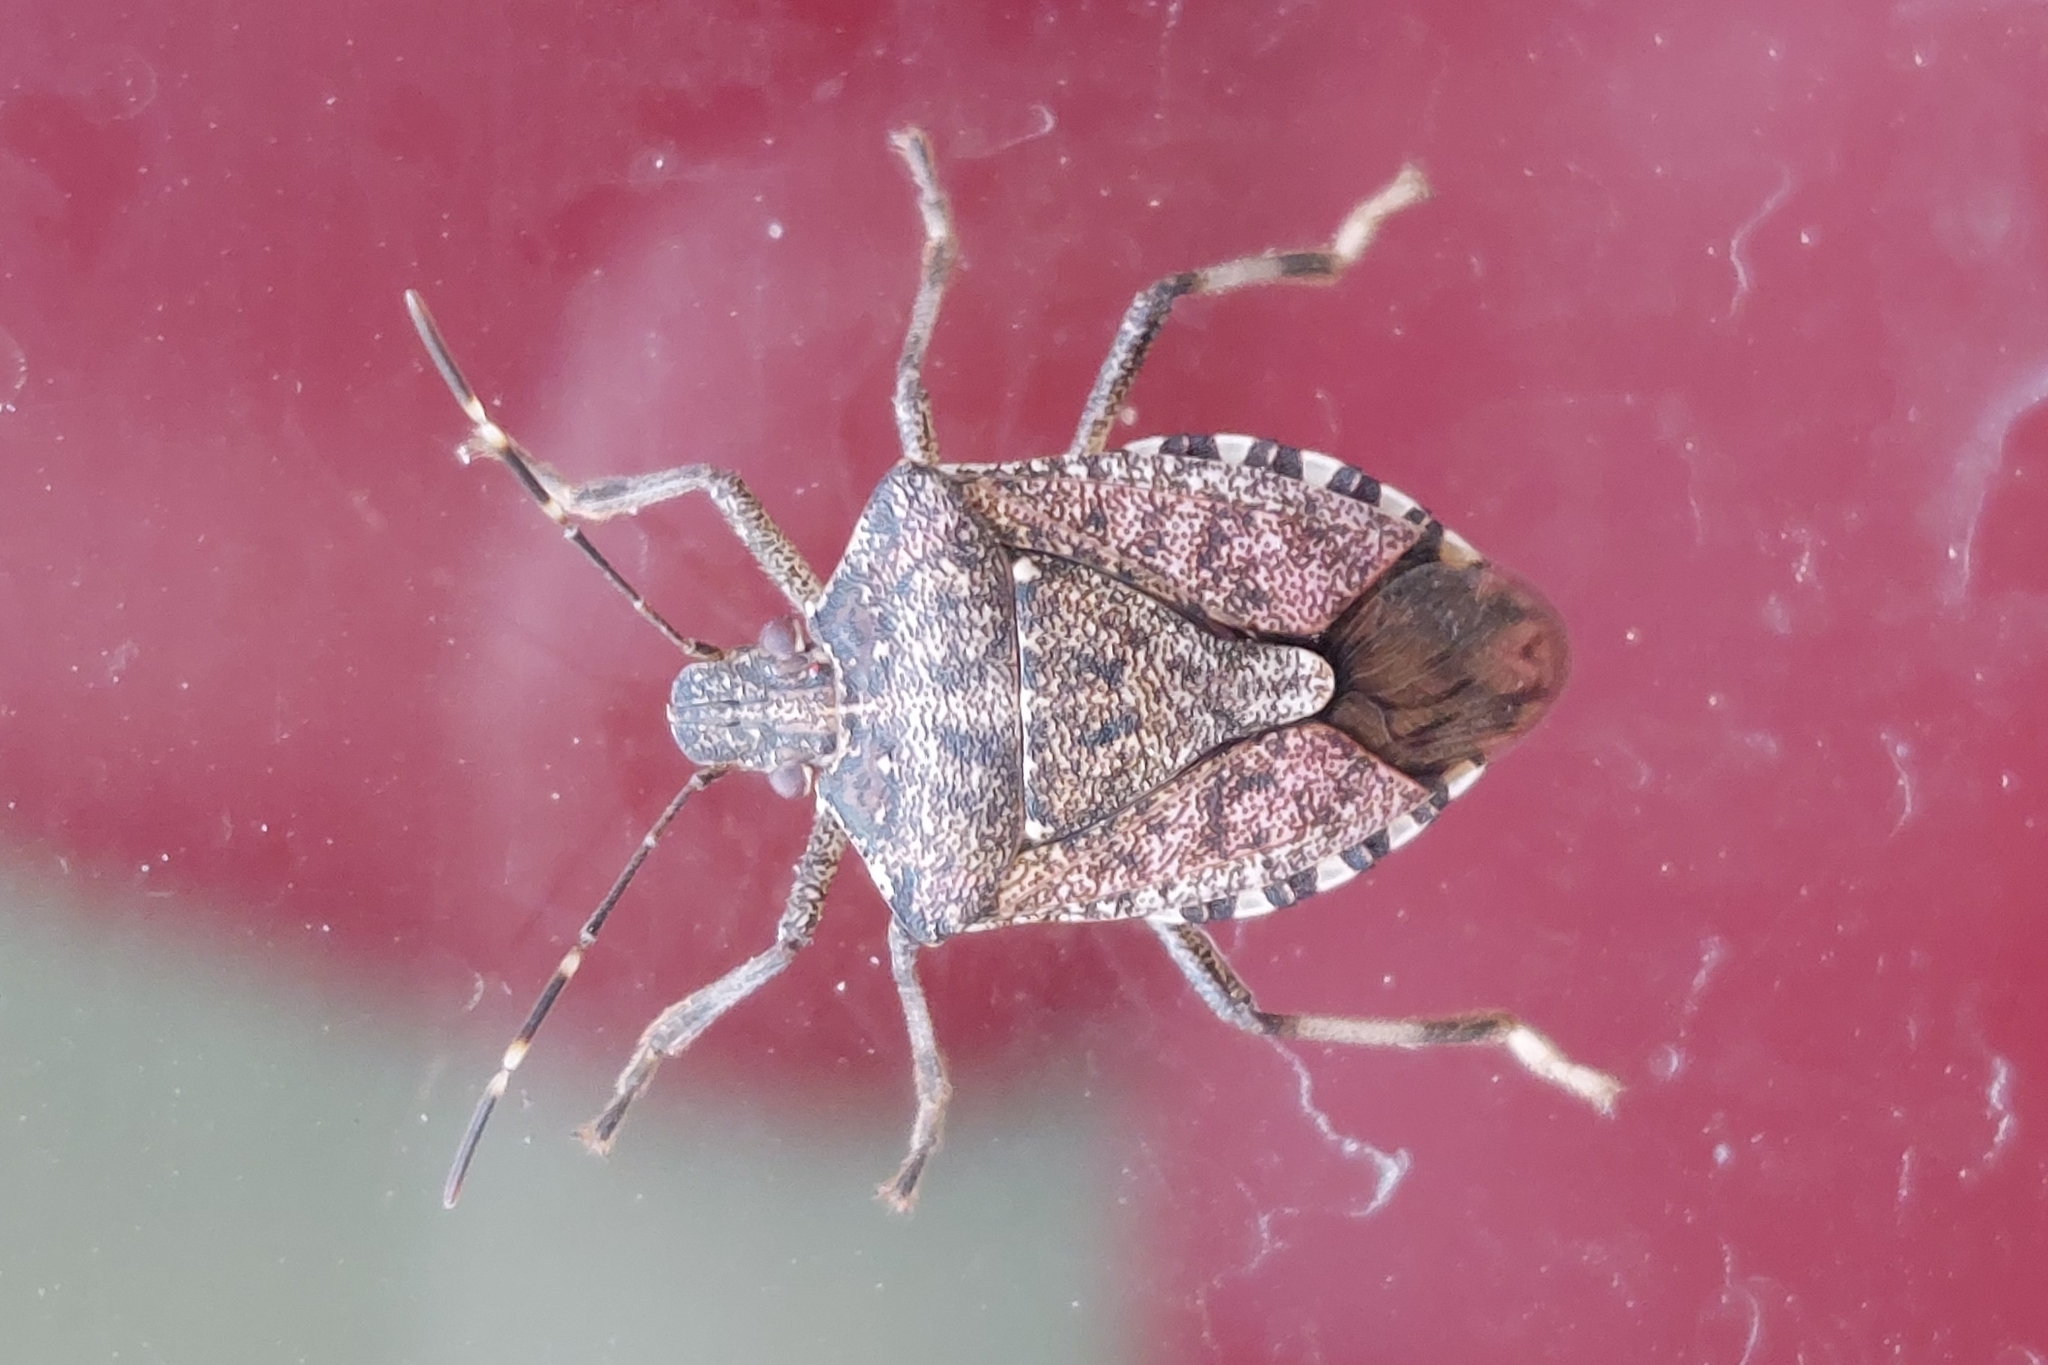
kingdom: Animalia
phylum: Arthropoda
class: Insecta
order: Hemiptera
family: Pentatomidae
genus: Halyomorpha
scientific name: Halyomorpha halys
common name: Brown marmorated stink bug
